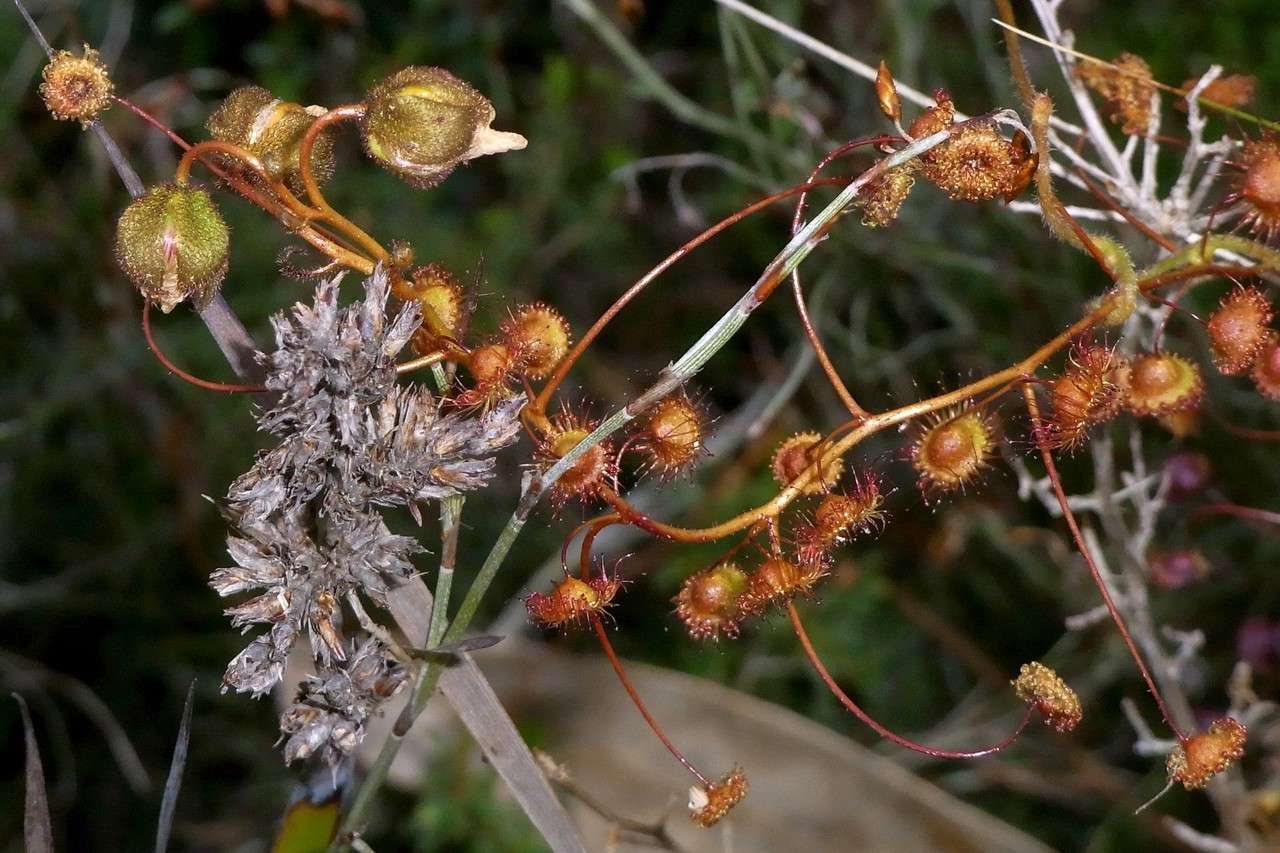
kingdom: Plantae
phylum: Tracheophyta
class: Magnoliopsida
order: Caryophyllales
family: Droseraceae
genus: Drosera
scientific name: Drosera planchonii
